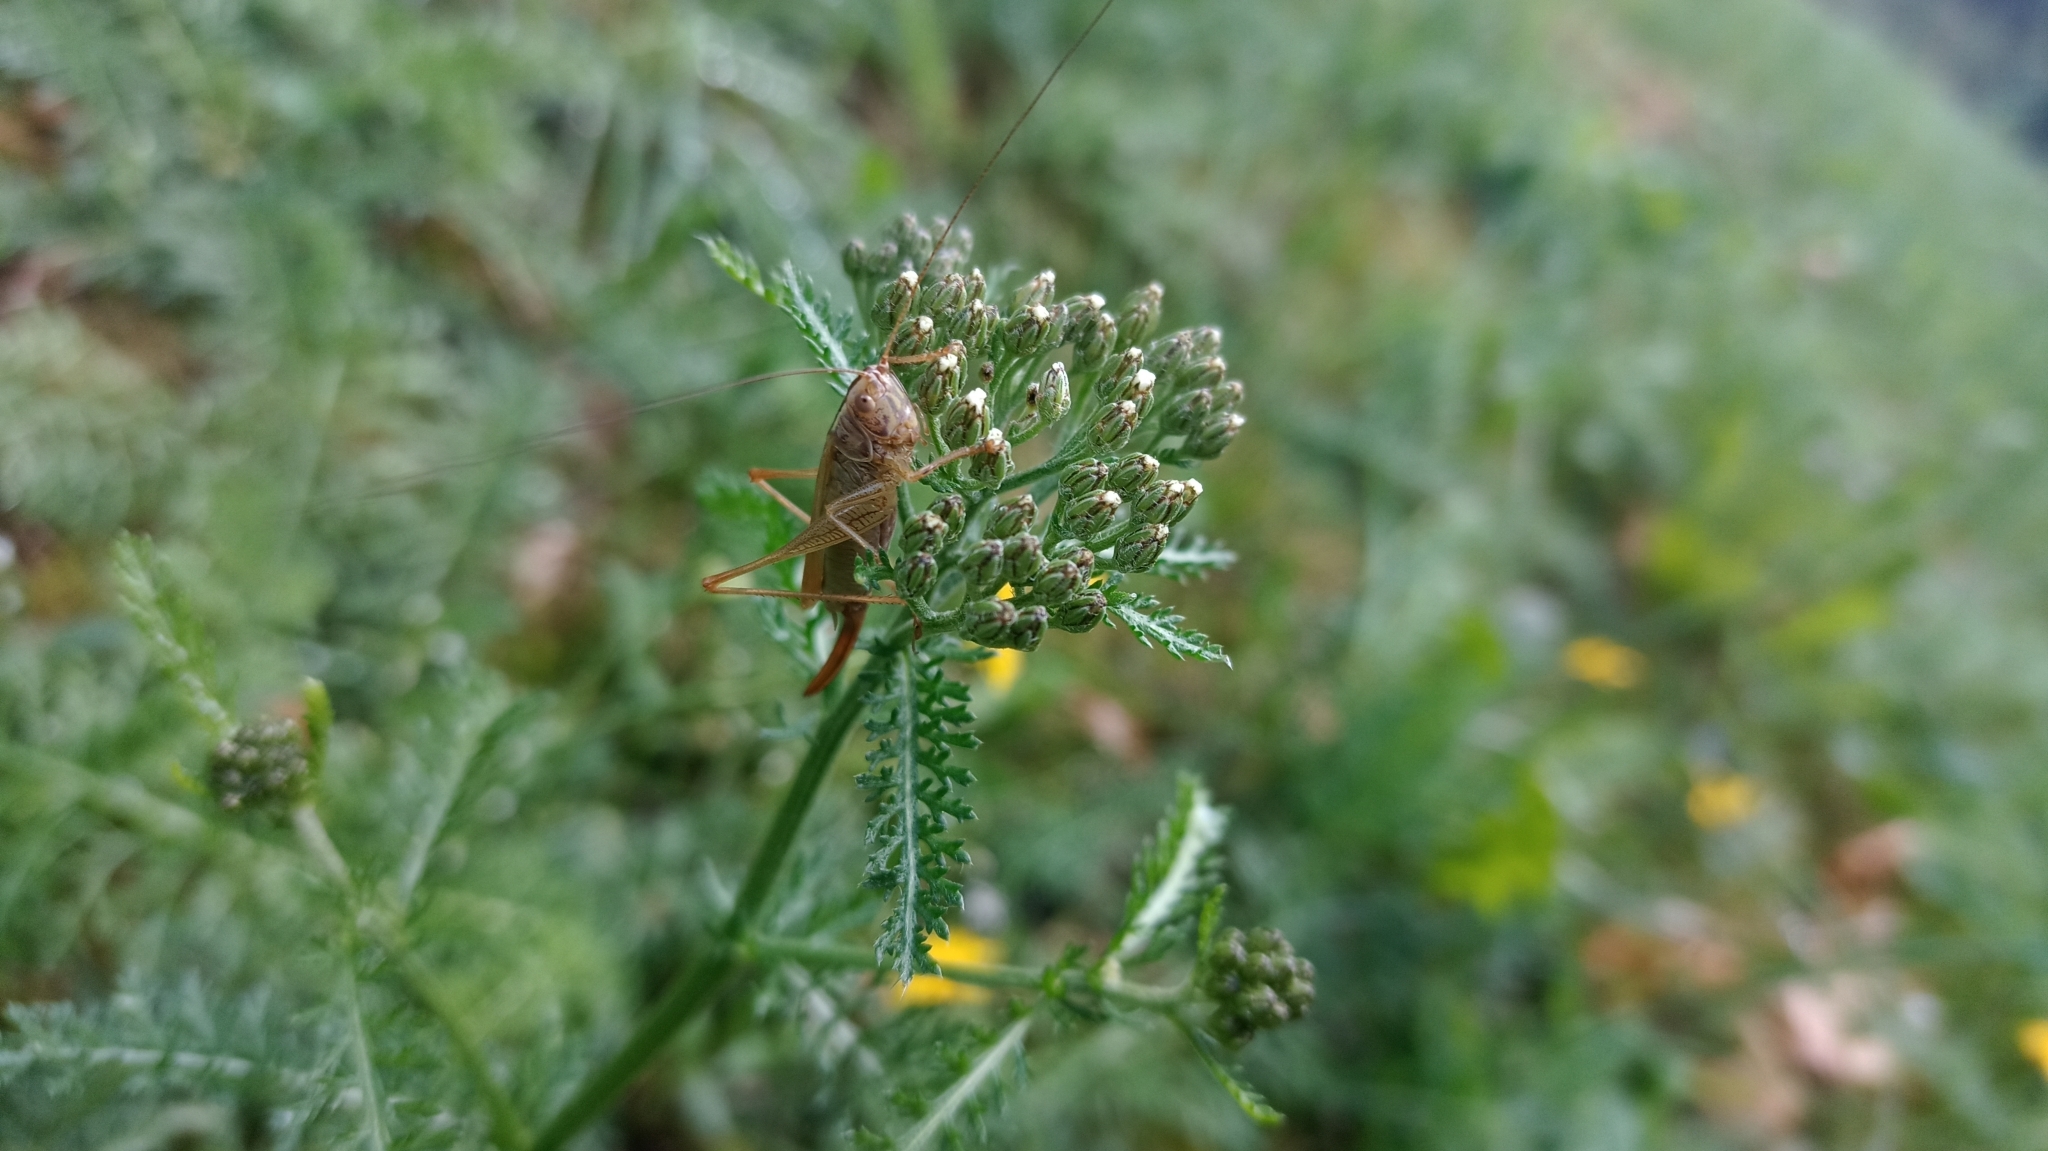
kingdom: Animalia
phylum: Arthropoda
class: Insecta
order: Orthoptera
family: Tettigoniidae
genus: Conocephalus
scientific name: Conocephalus fuscus
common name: Long-winged conehead
